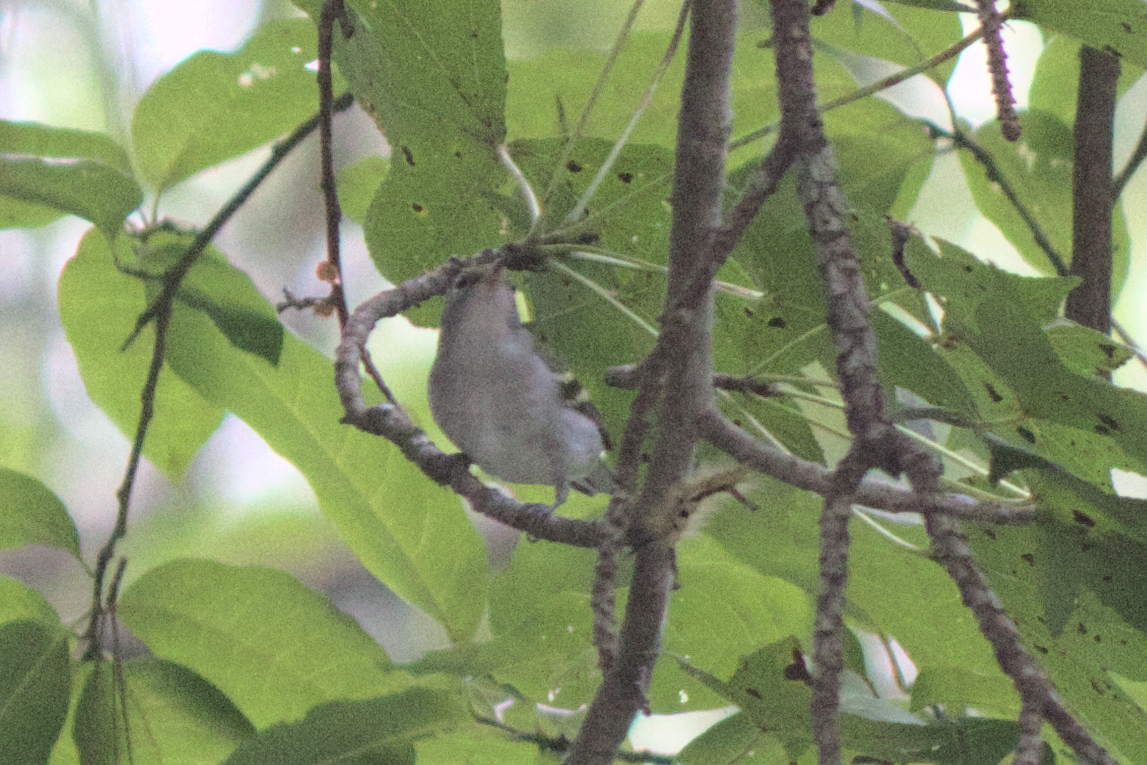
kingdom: Animalia
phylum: Chordata
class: Aves
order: Passeriformes
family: Parulidae
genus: Setophaga
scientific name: Setophaga pensylvanica
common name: Chestnut-sided warbler
